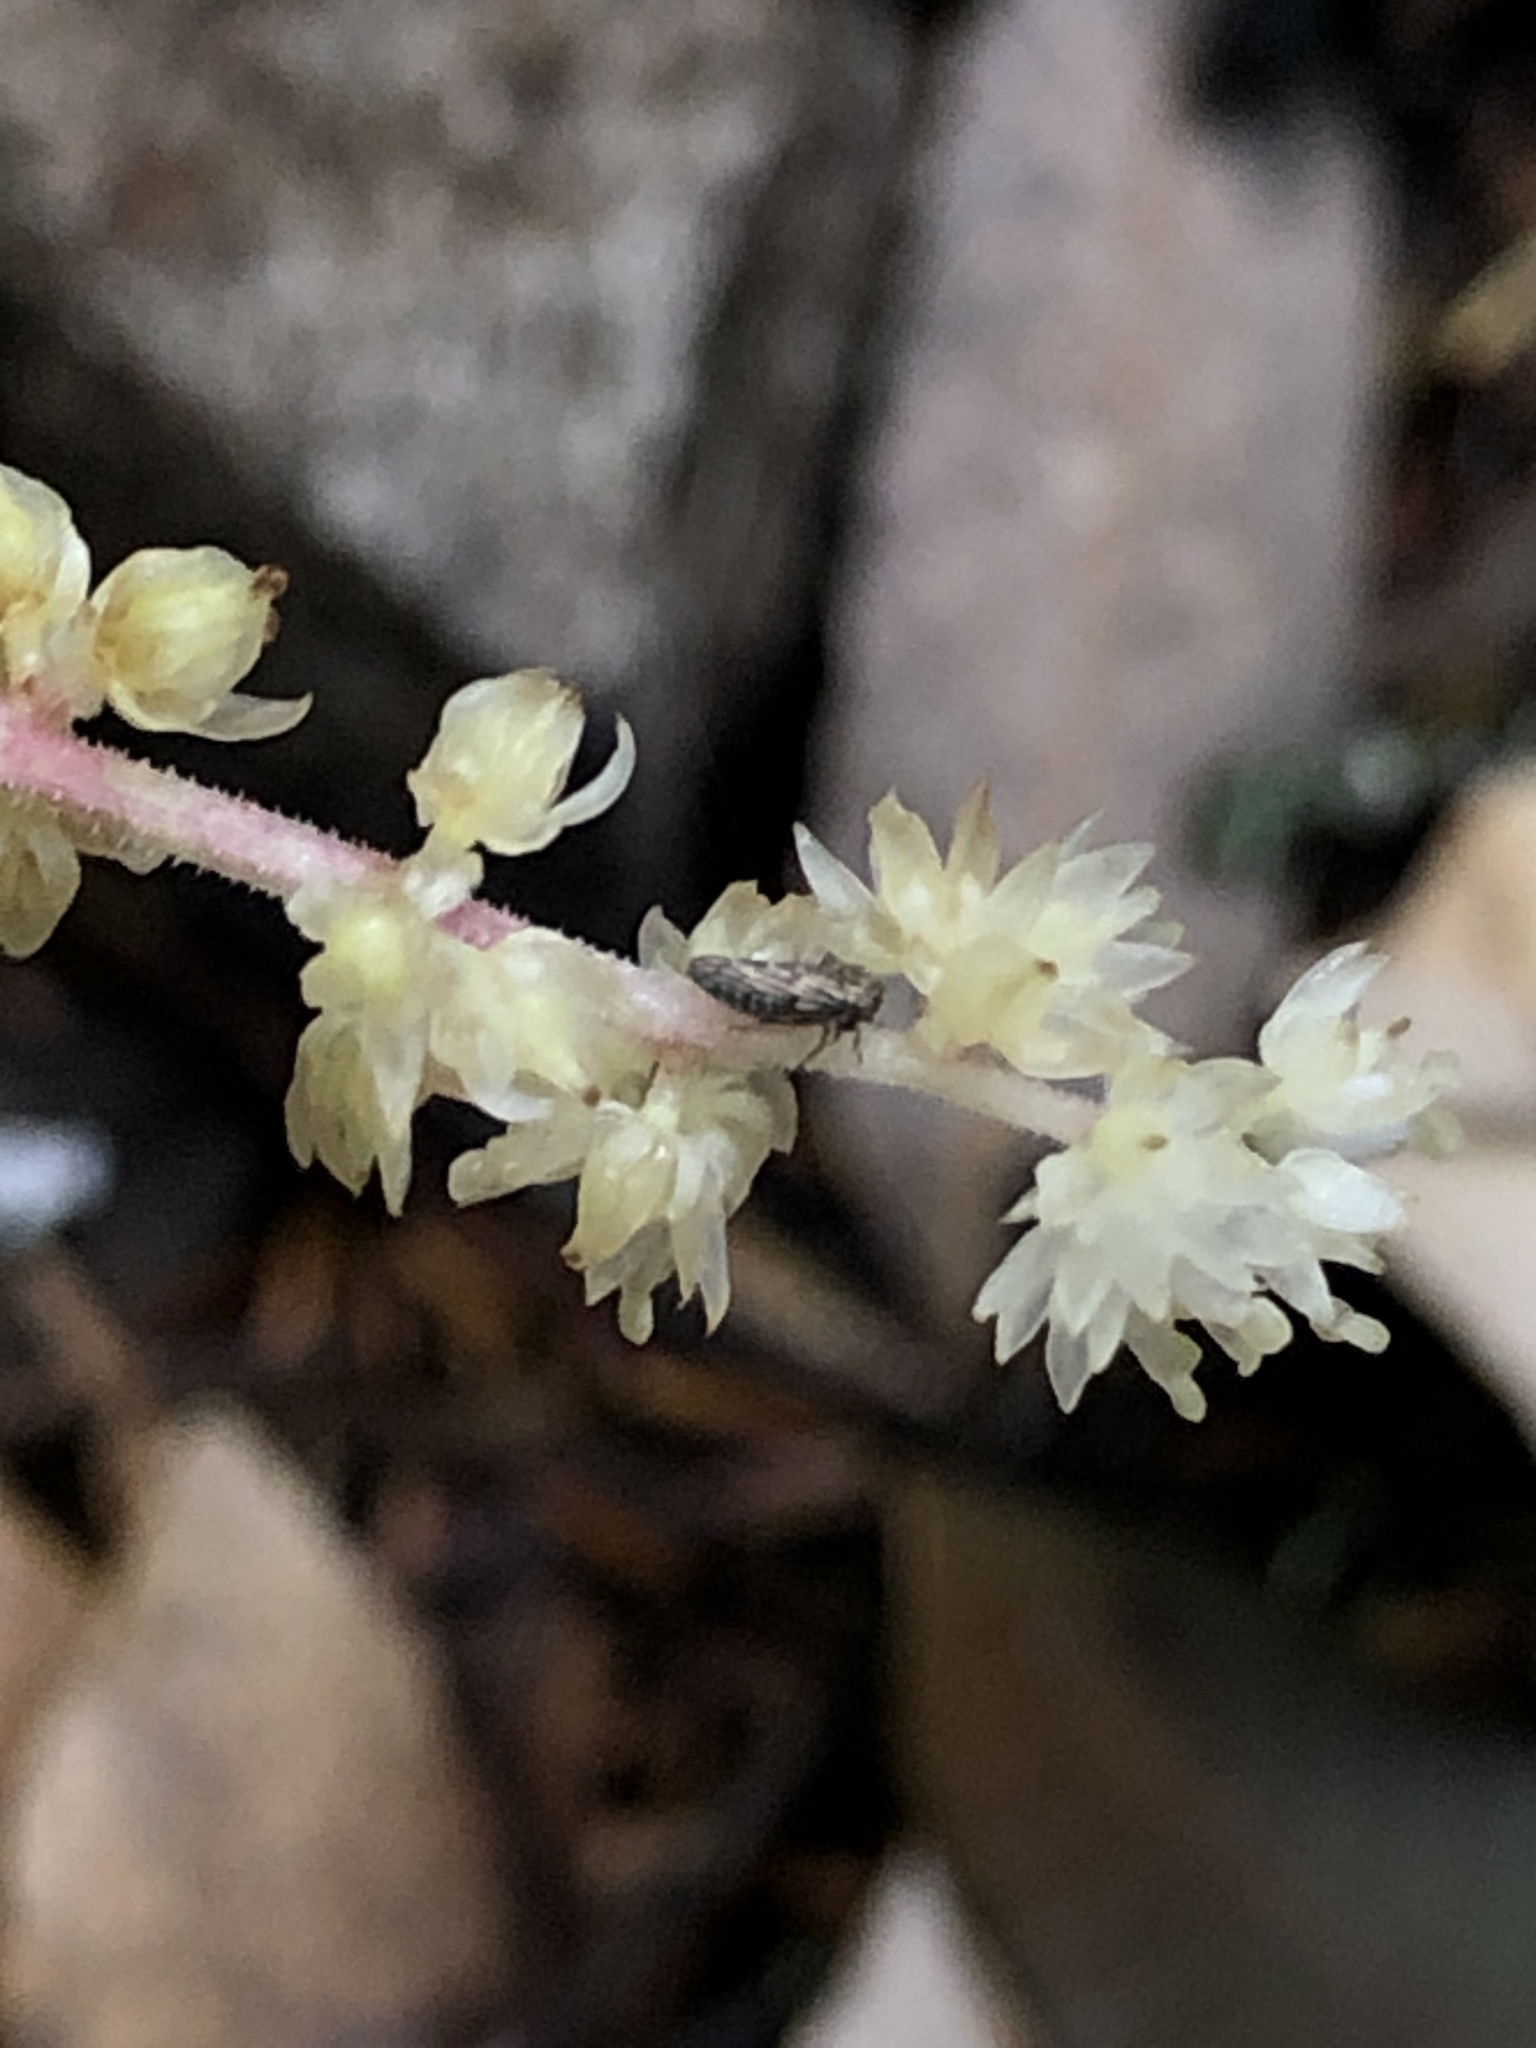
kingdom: Plantae
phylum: Tracheophyta
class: Liliopsida
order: Asparagales
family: Asparagaceae
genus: Maianthemum
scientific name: Maianthemum racemosum
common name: False spikenard
